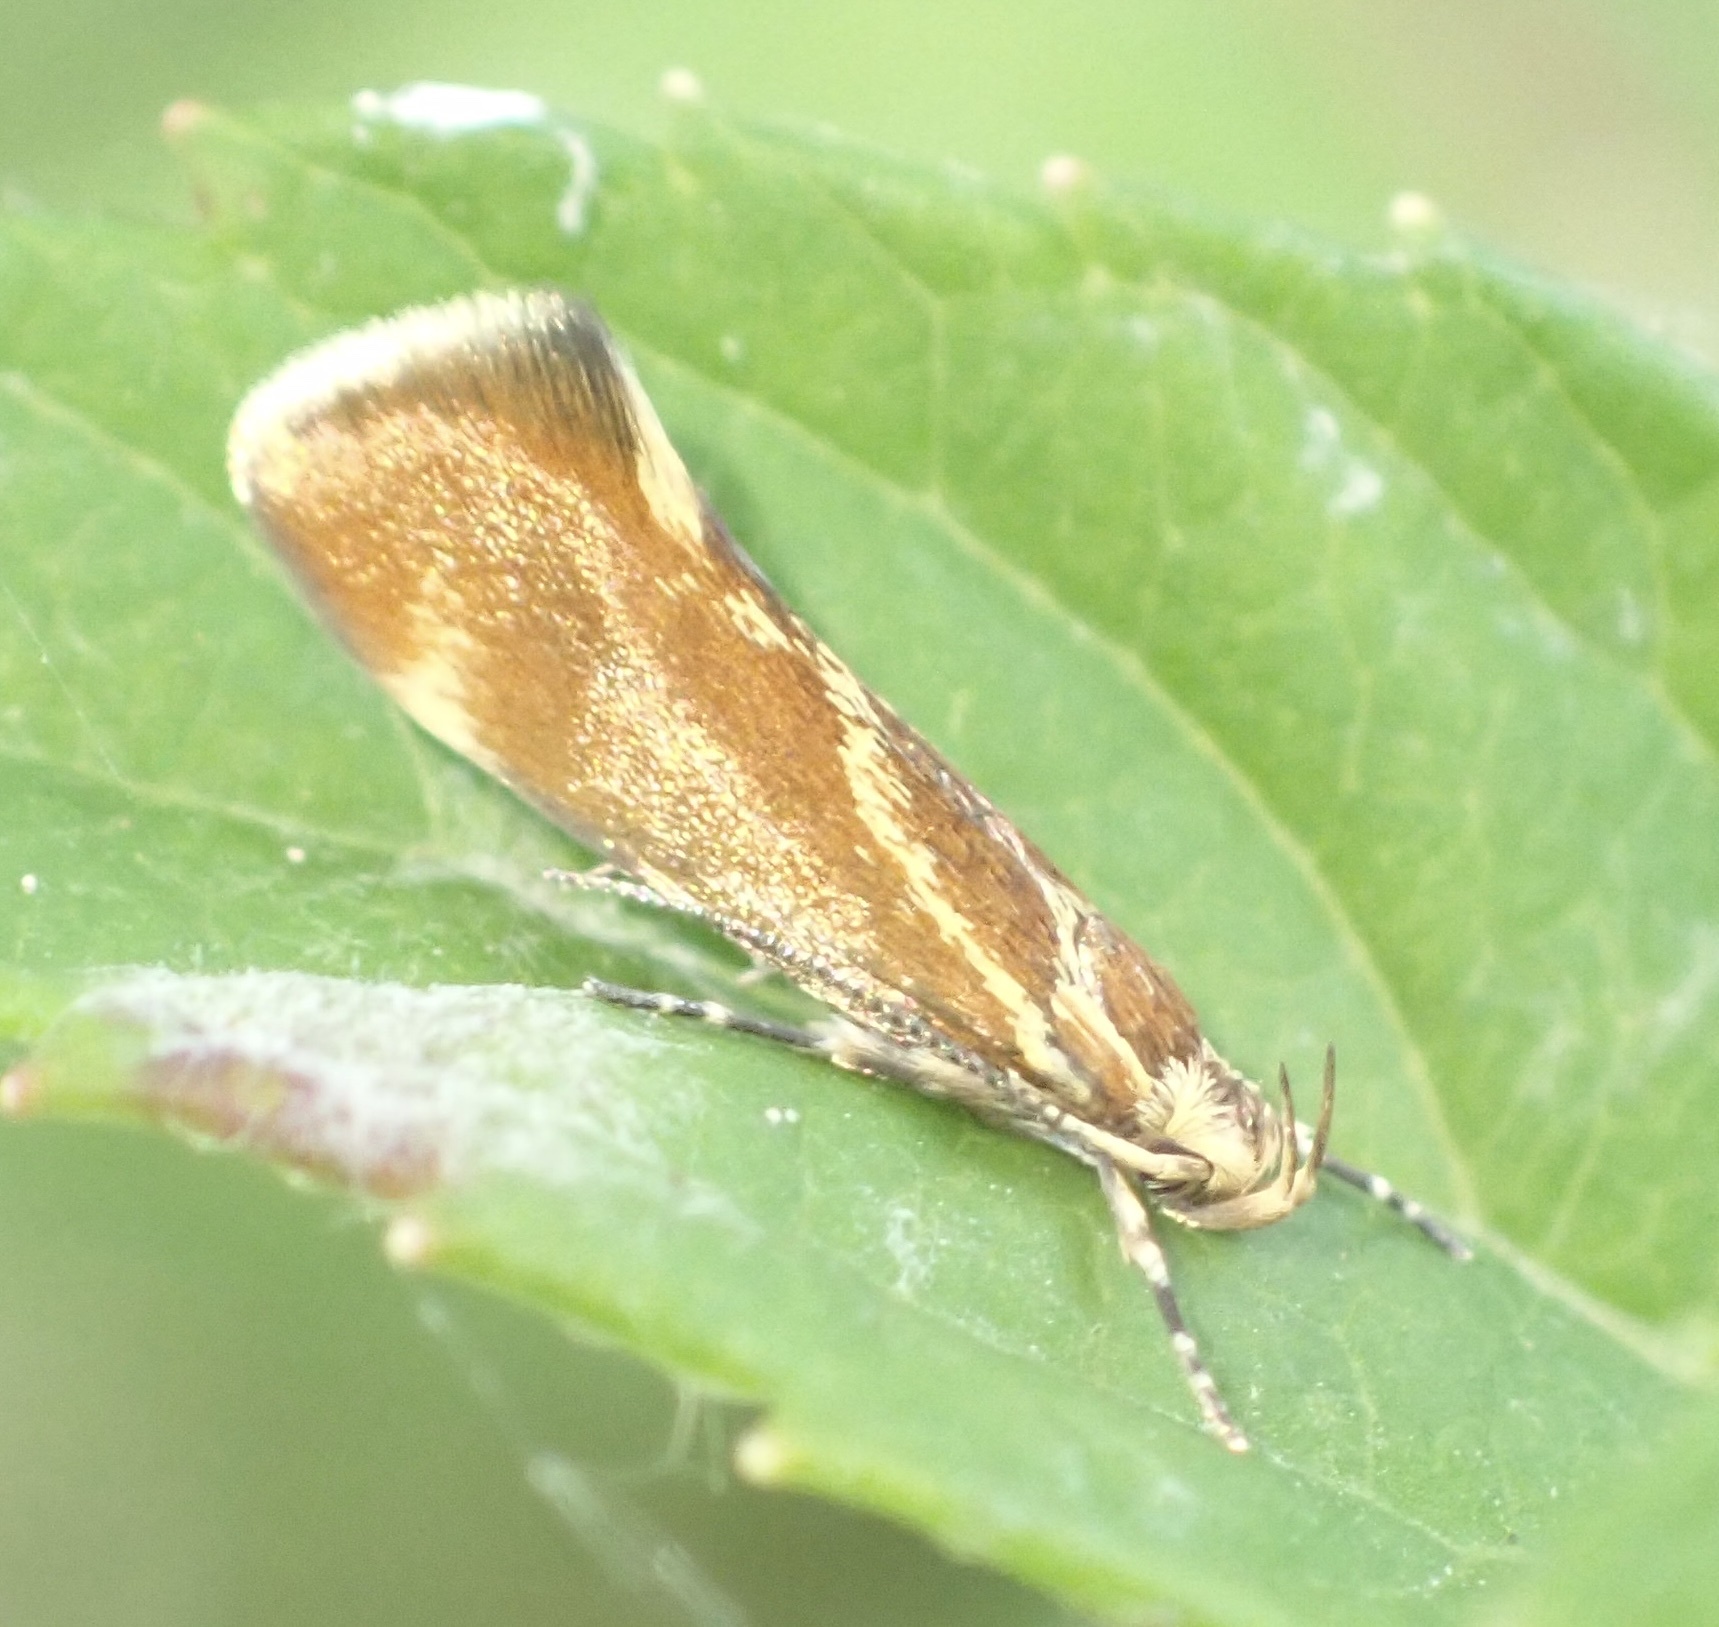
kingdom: Animalia
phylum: Arthropoda
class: Insecta
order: Lepidoptera
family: Oecophoridae
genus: Borkhausenia
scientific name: Borkhausenia italica
